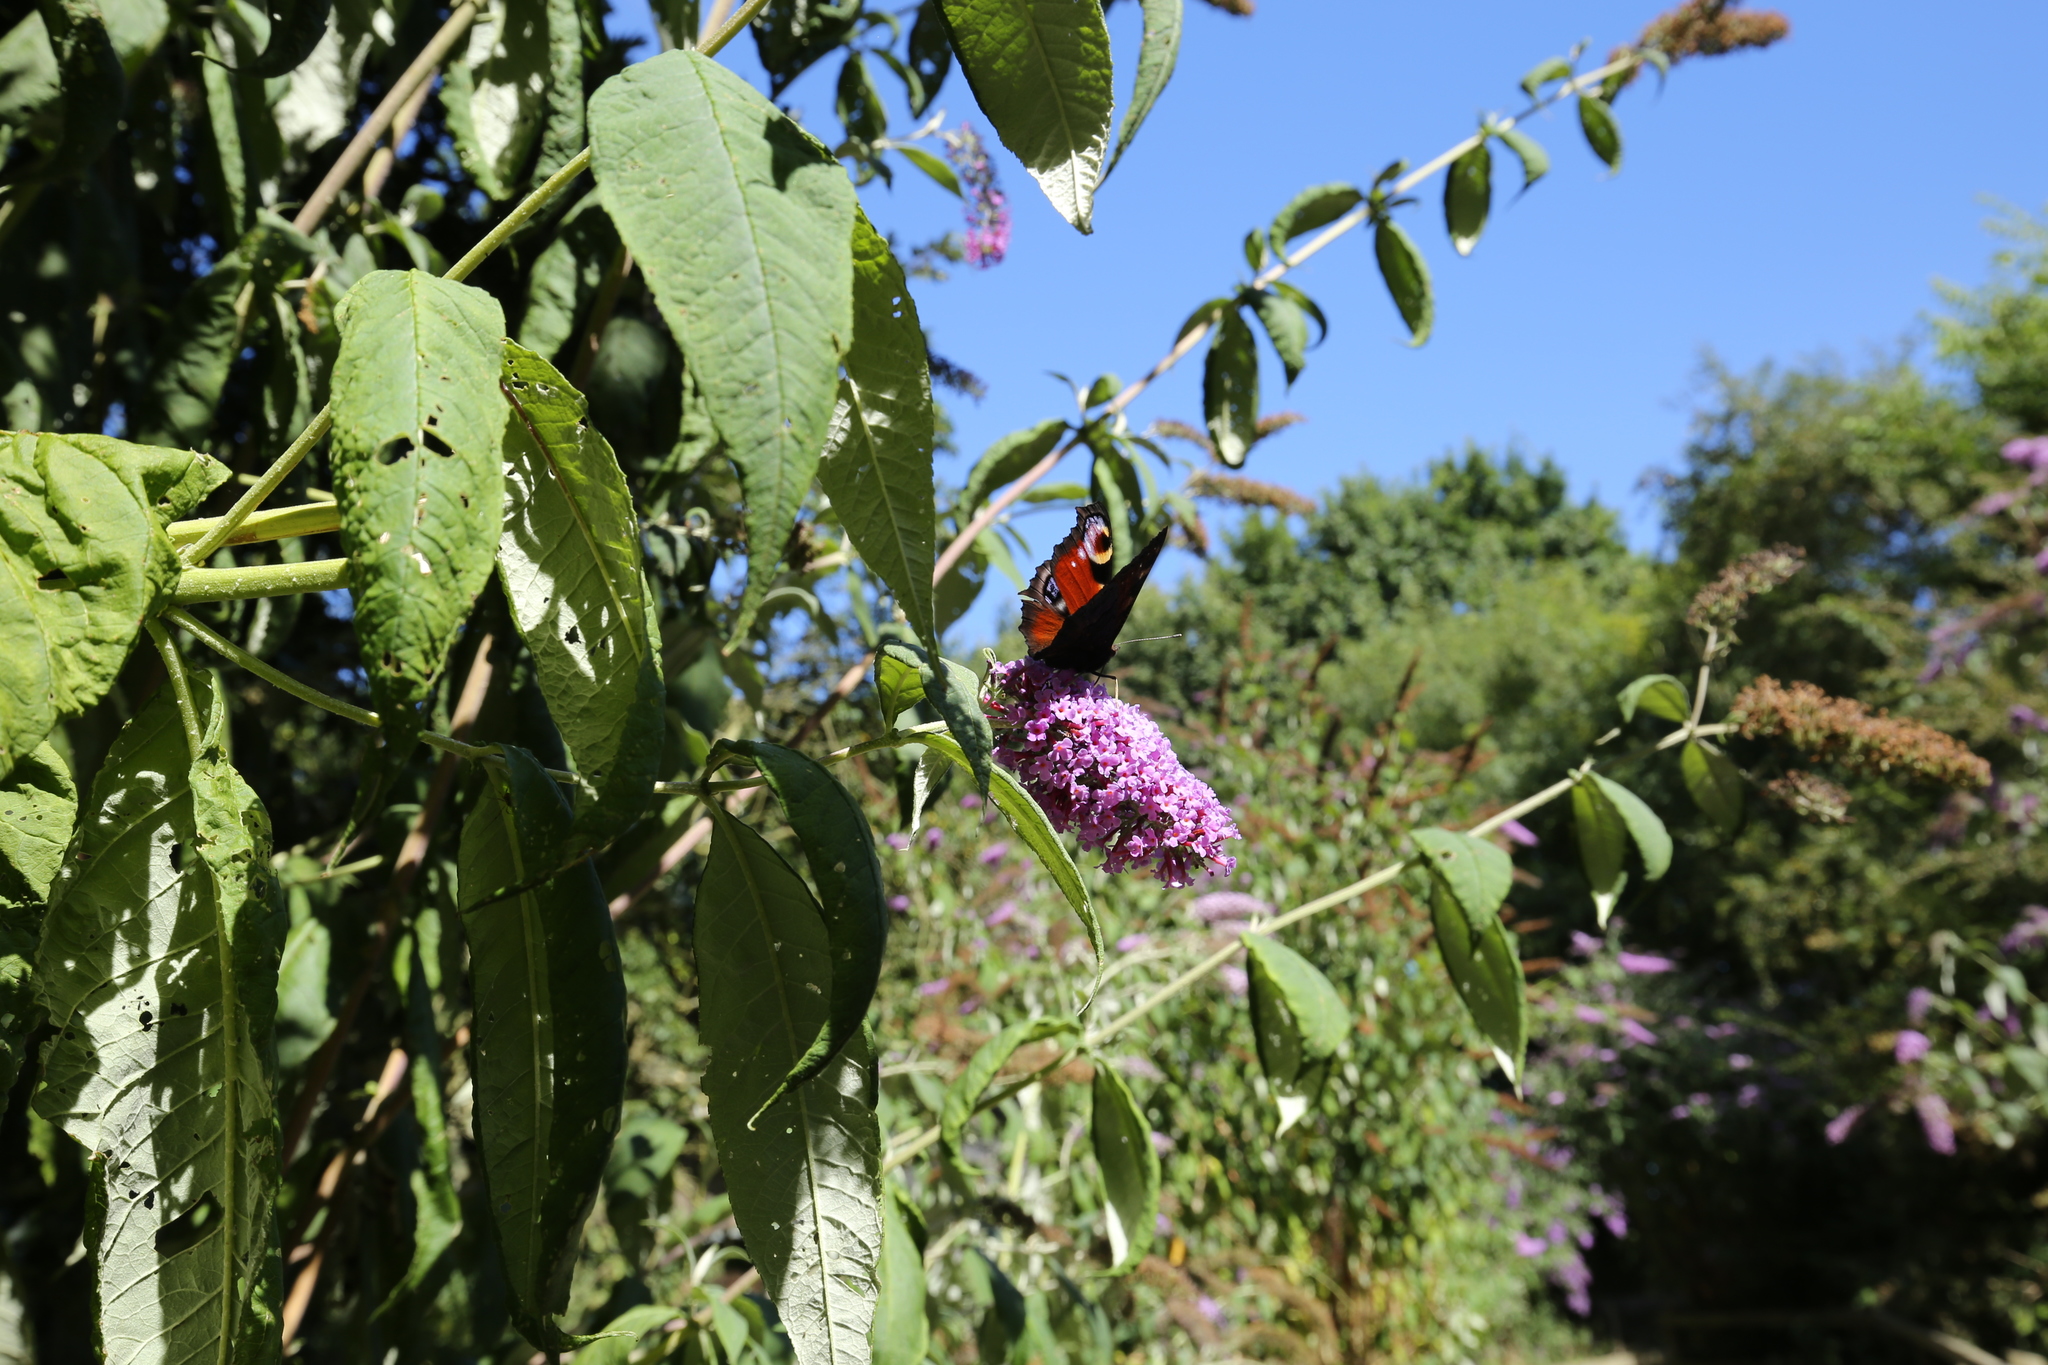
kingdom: Animalia
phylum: Arthropoda
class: Insecta
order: Lepidoptera
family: Nymphalidae
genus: Aglais
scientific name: Aglais io
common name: Peacock
